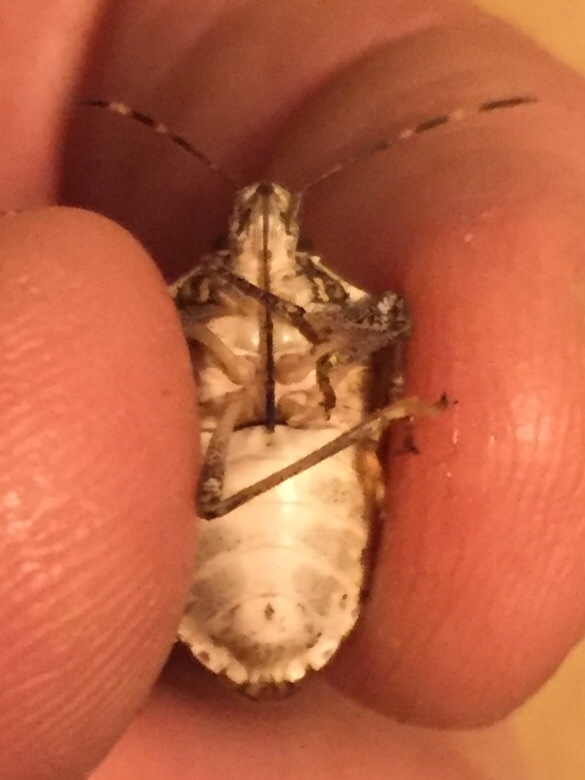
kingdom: Animalia
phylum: Arthropoda
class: Insecta
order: Hemiptera
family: Pentatomidae
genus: Halyomorpha
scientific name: Halyomorpha halys
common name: Brown marmorated stink bug
